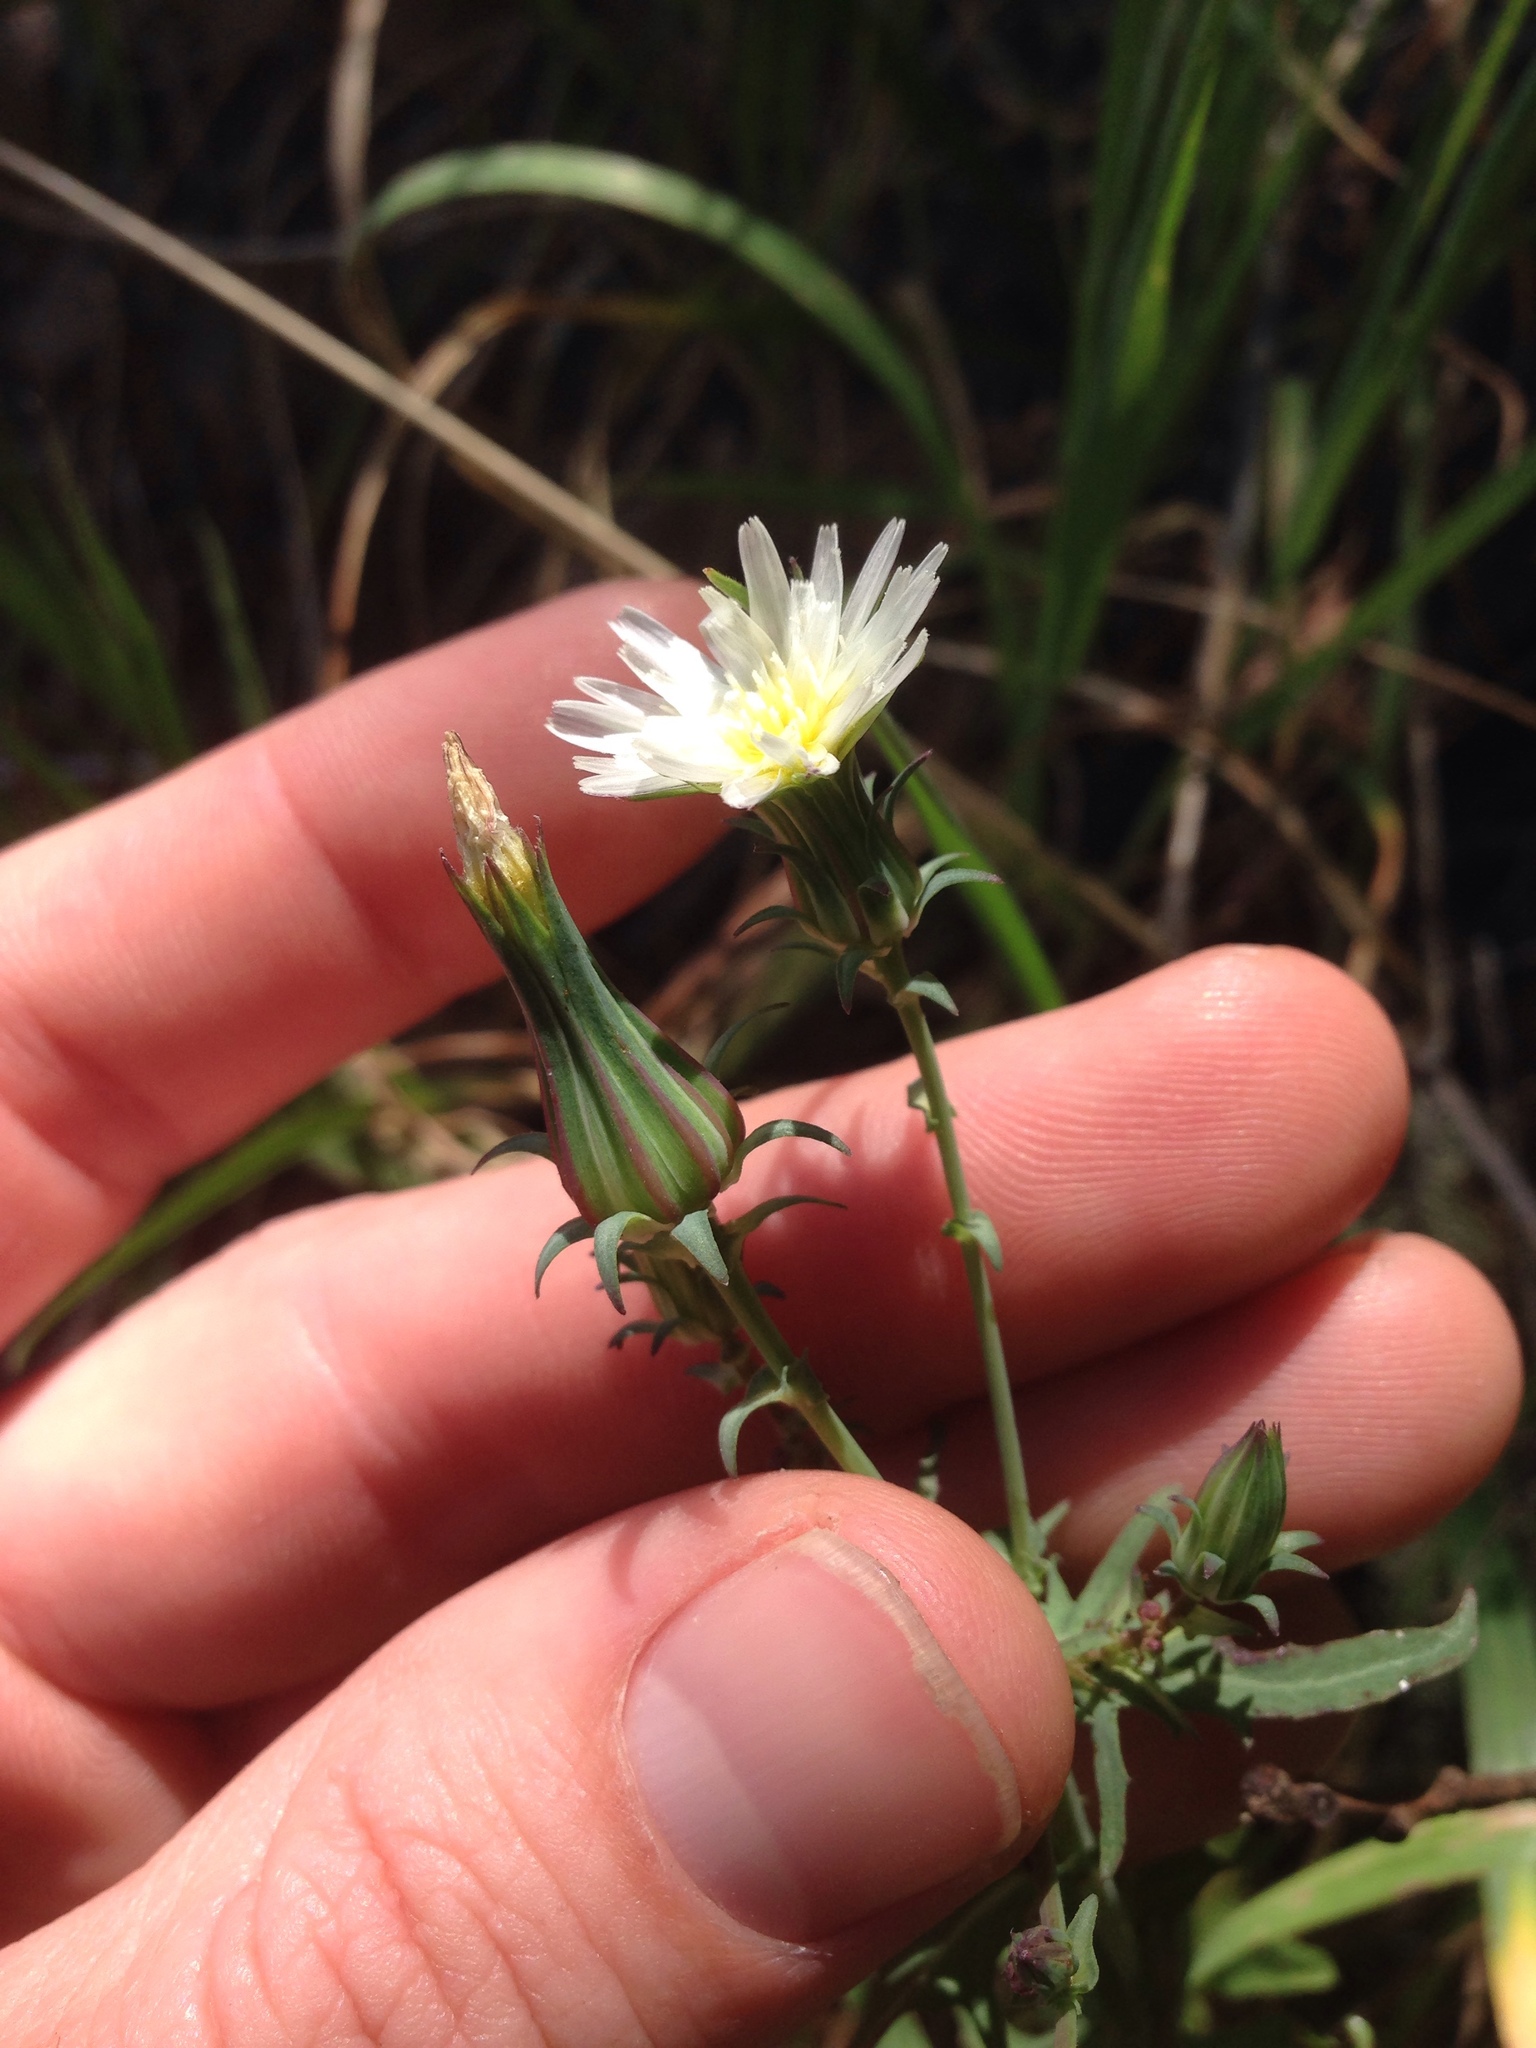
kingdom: Plantae
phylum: Tracheophyta
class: Magnoliopsida
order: Asterales
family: Asteraceae
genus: Rafinesquia
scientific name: Rafinesquia californica
